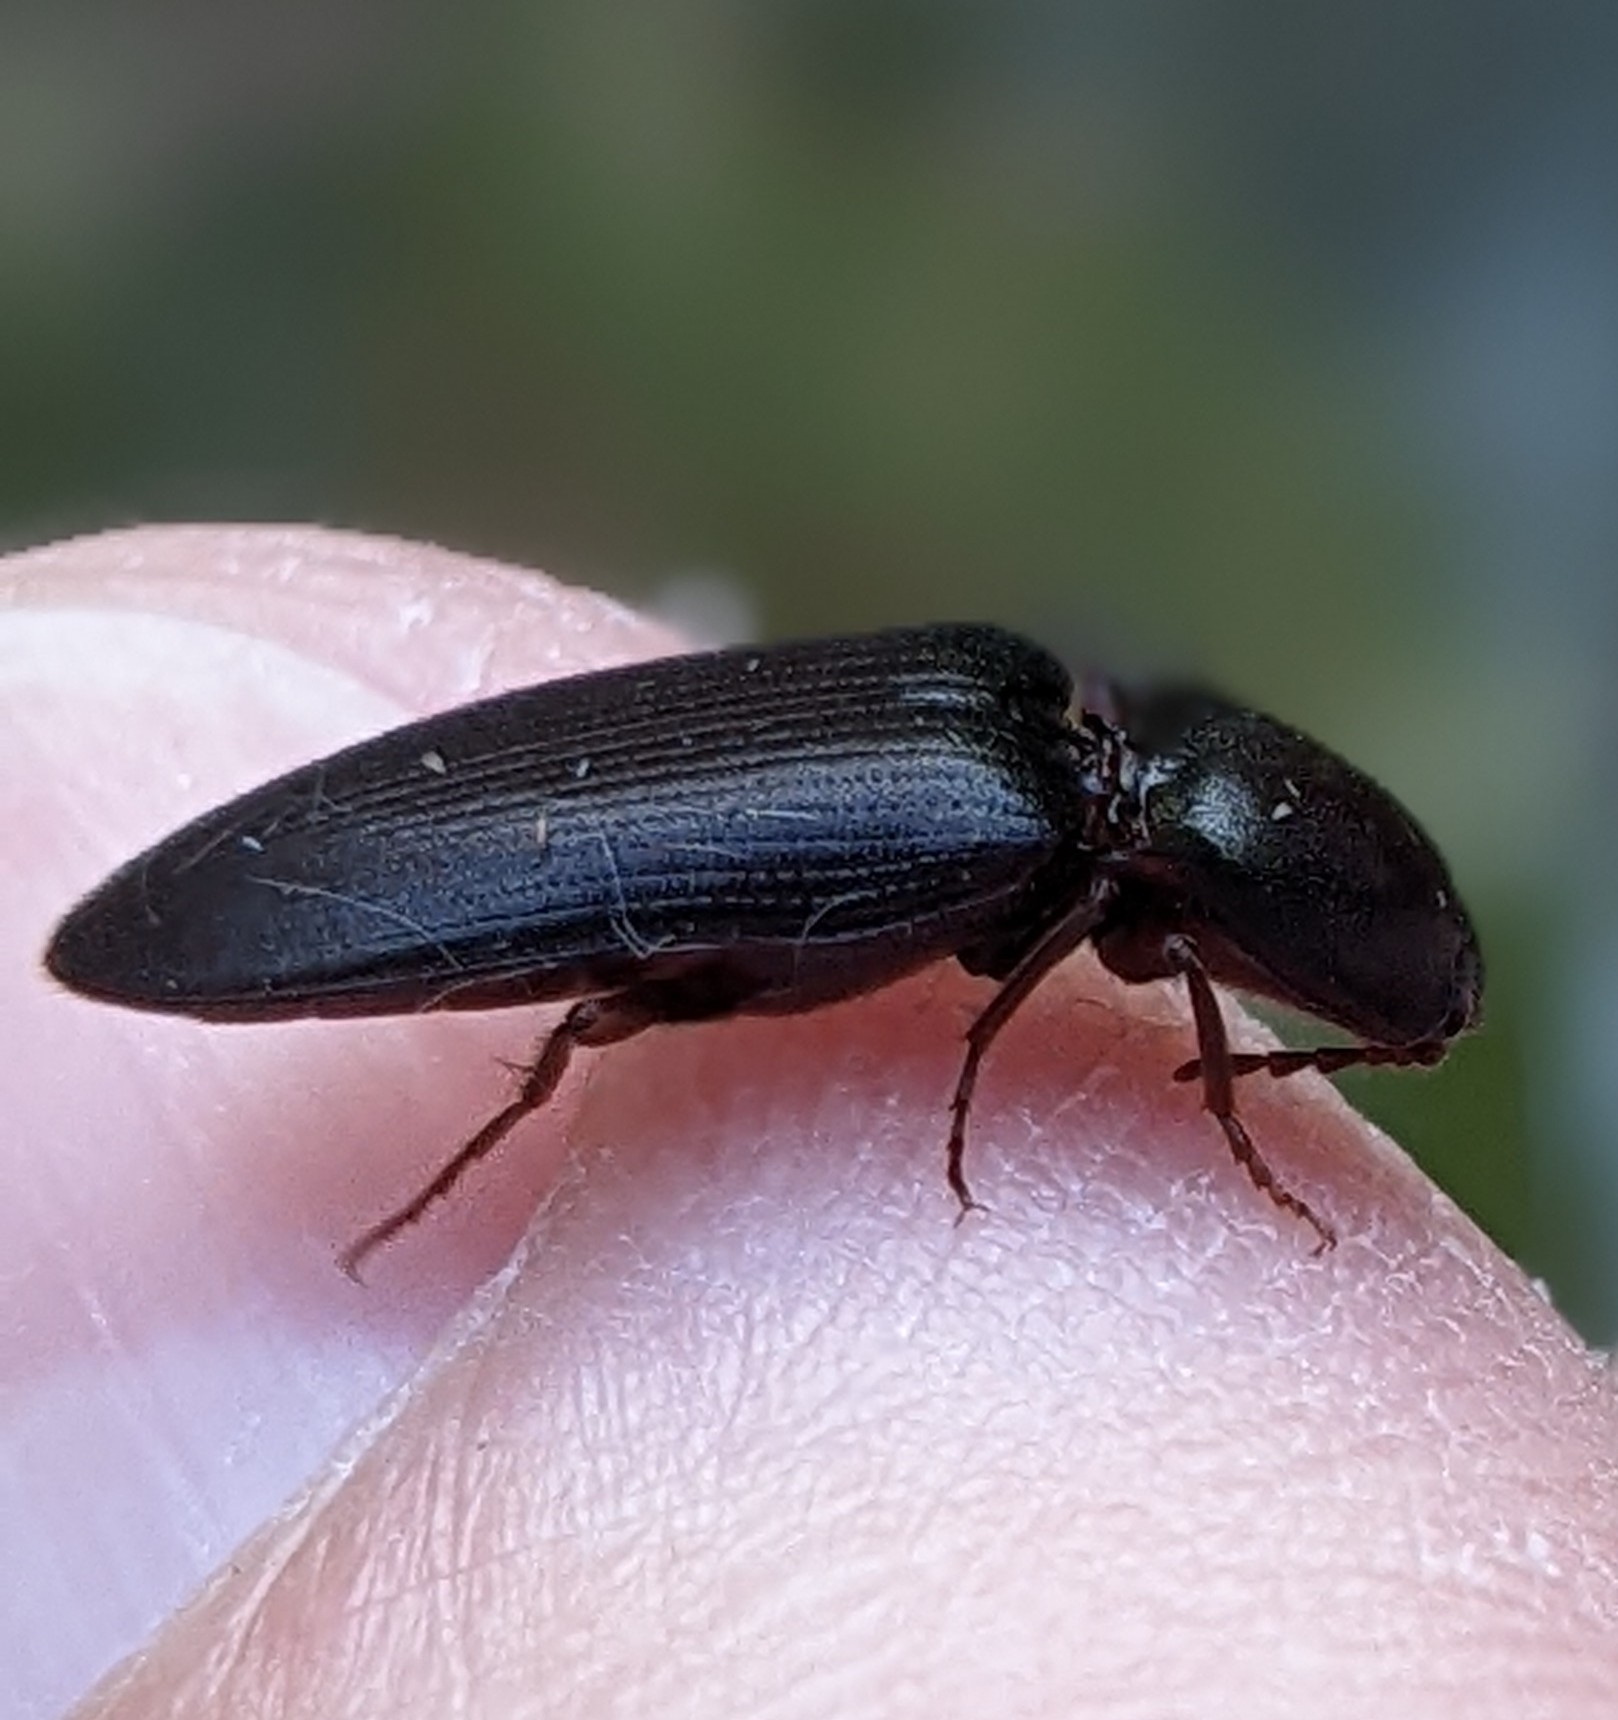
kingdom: Animalia
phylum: Arthropoda
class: Insecta
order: Coleoptera
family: Elateridae
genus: Ampedus
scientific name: Ampedus rhodopus
